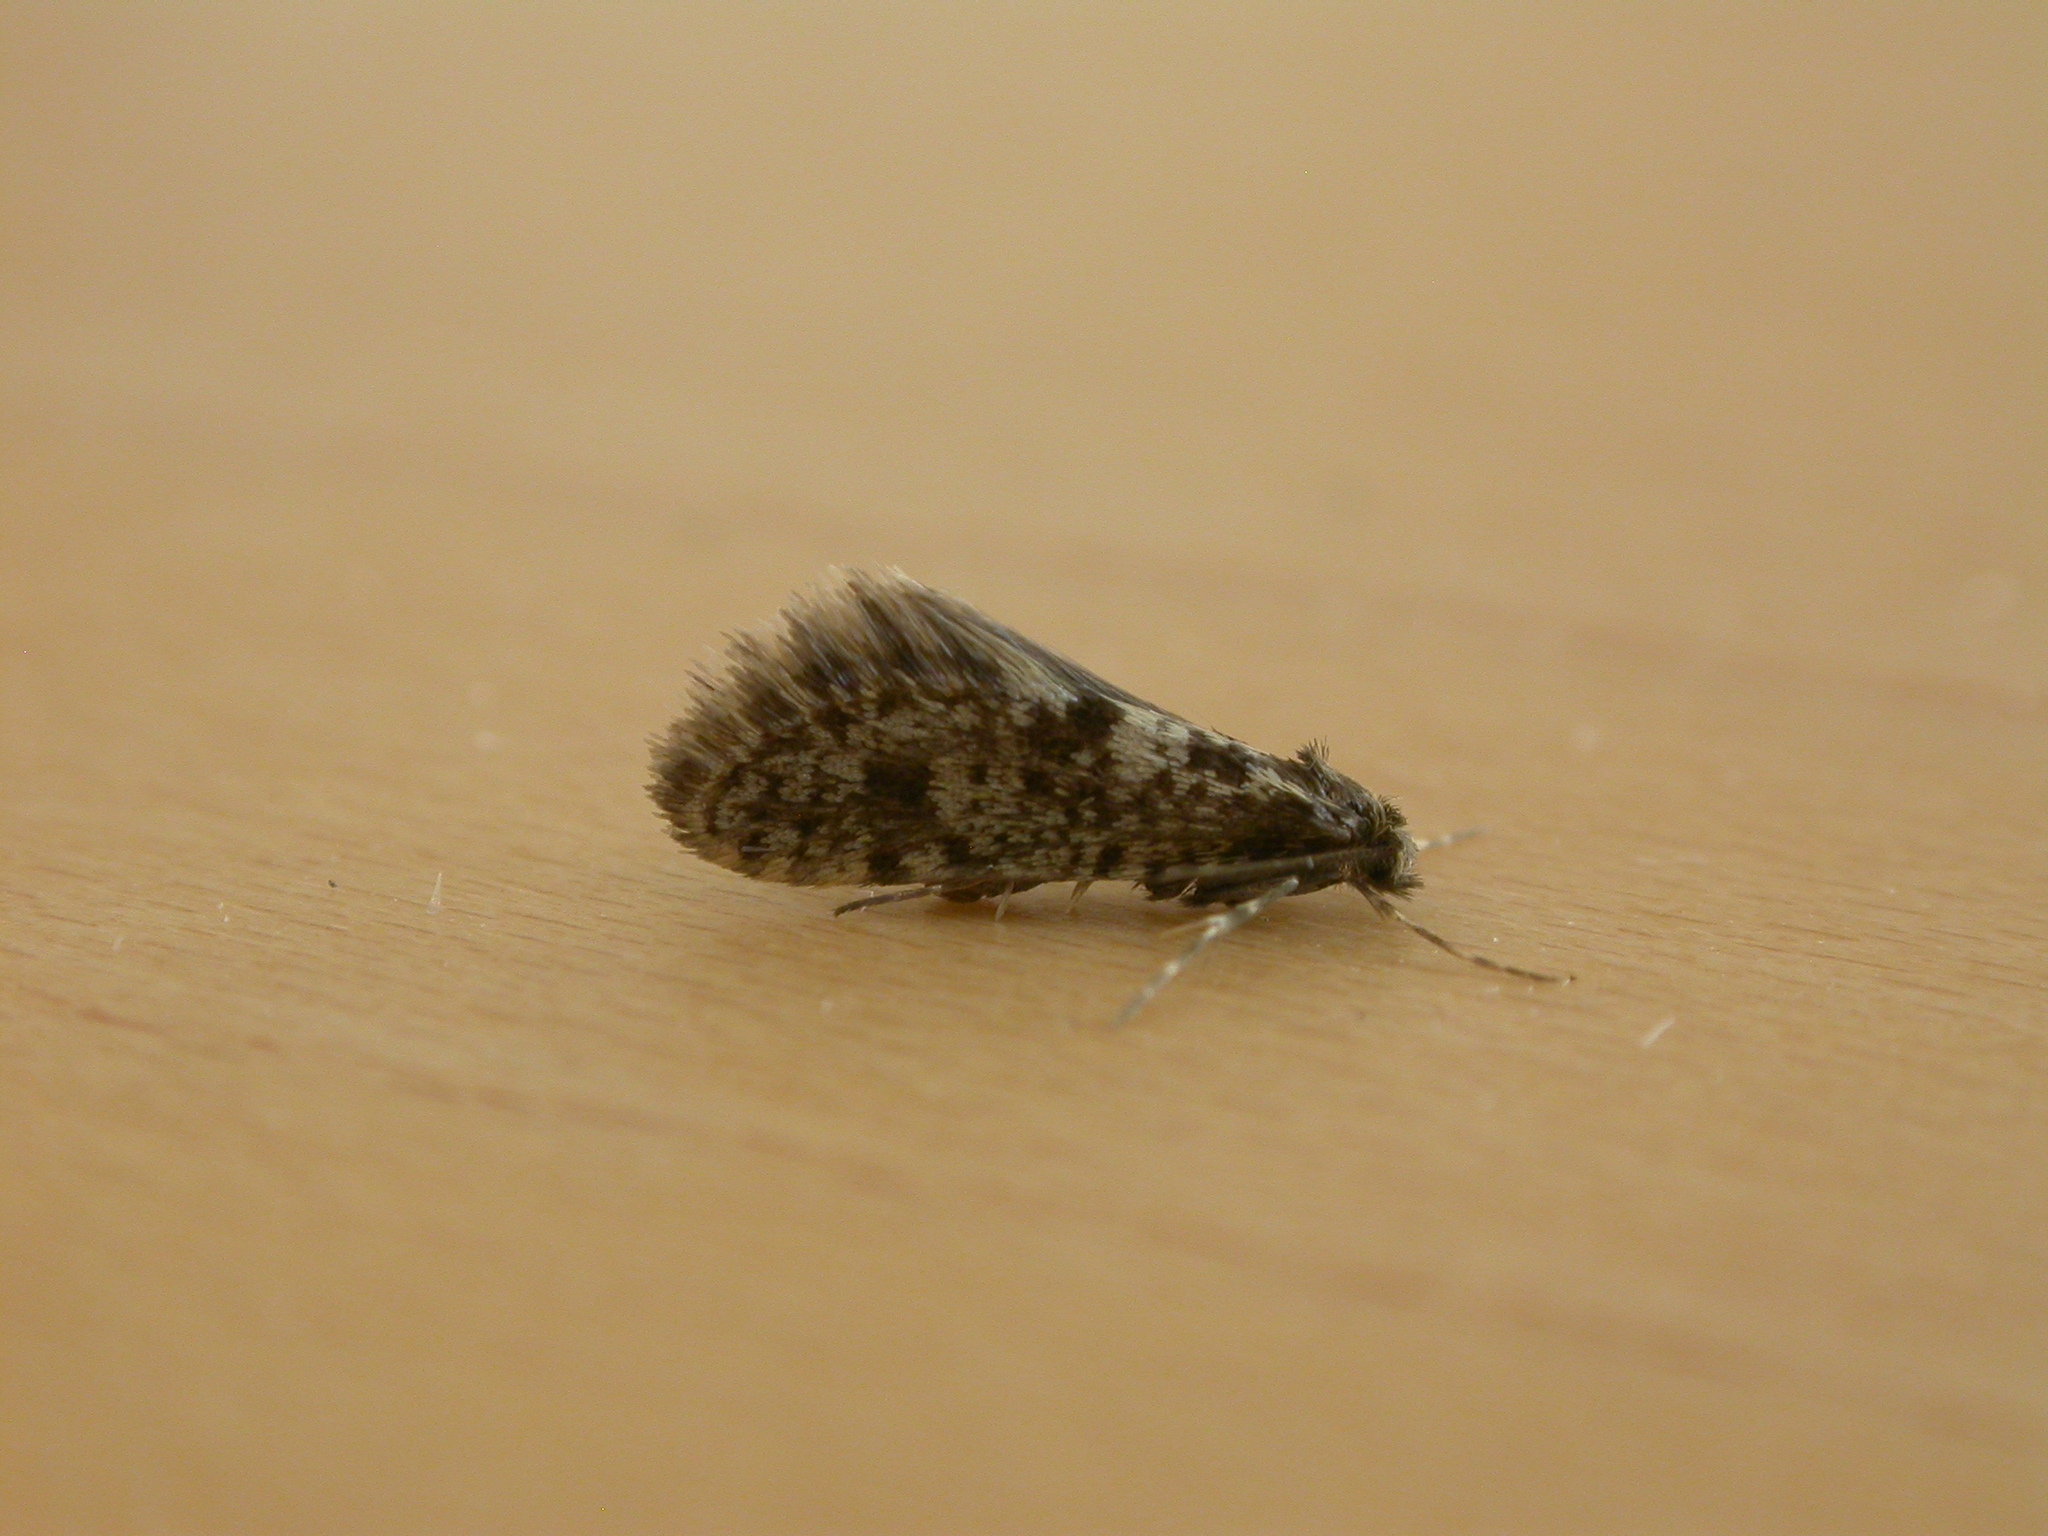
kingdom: Animalia
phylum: Arthropoda
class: Insecta
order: Lepidoptera
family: Psychidae
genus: Bankesia
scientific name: Bankesia conspurcatella
